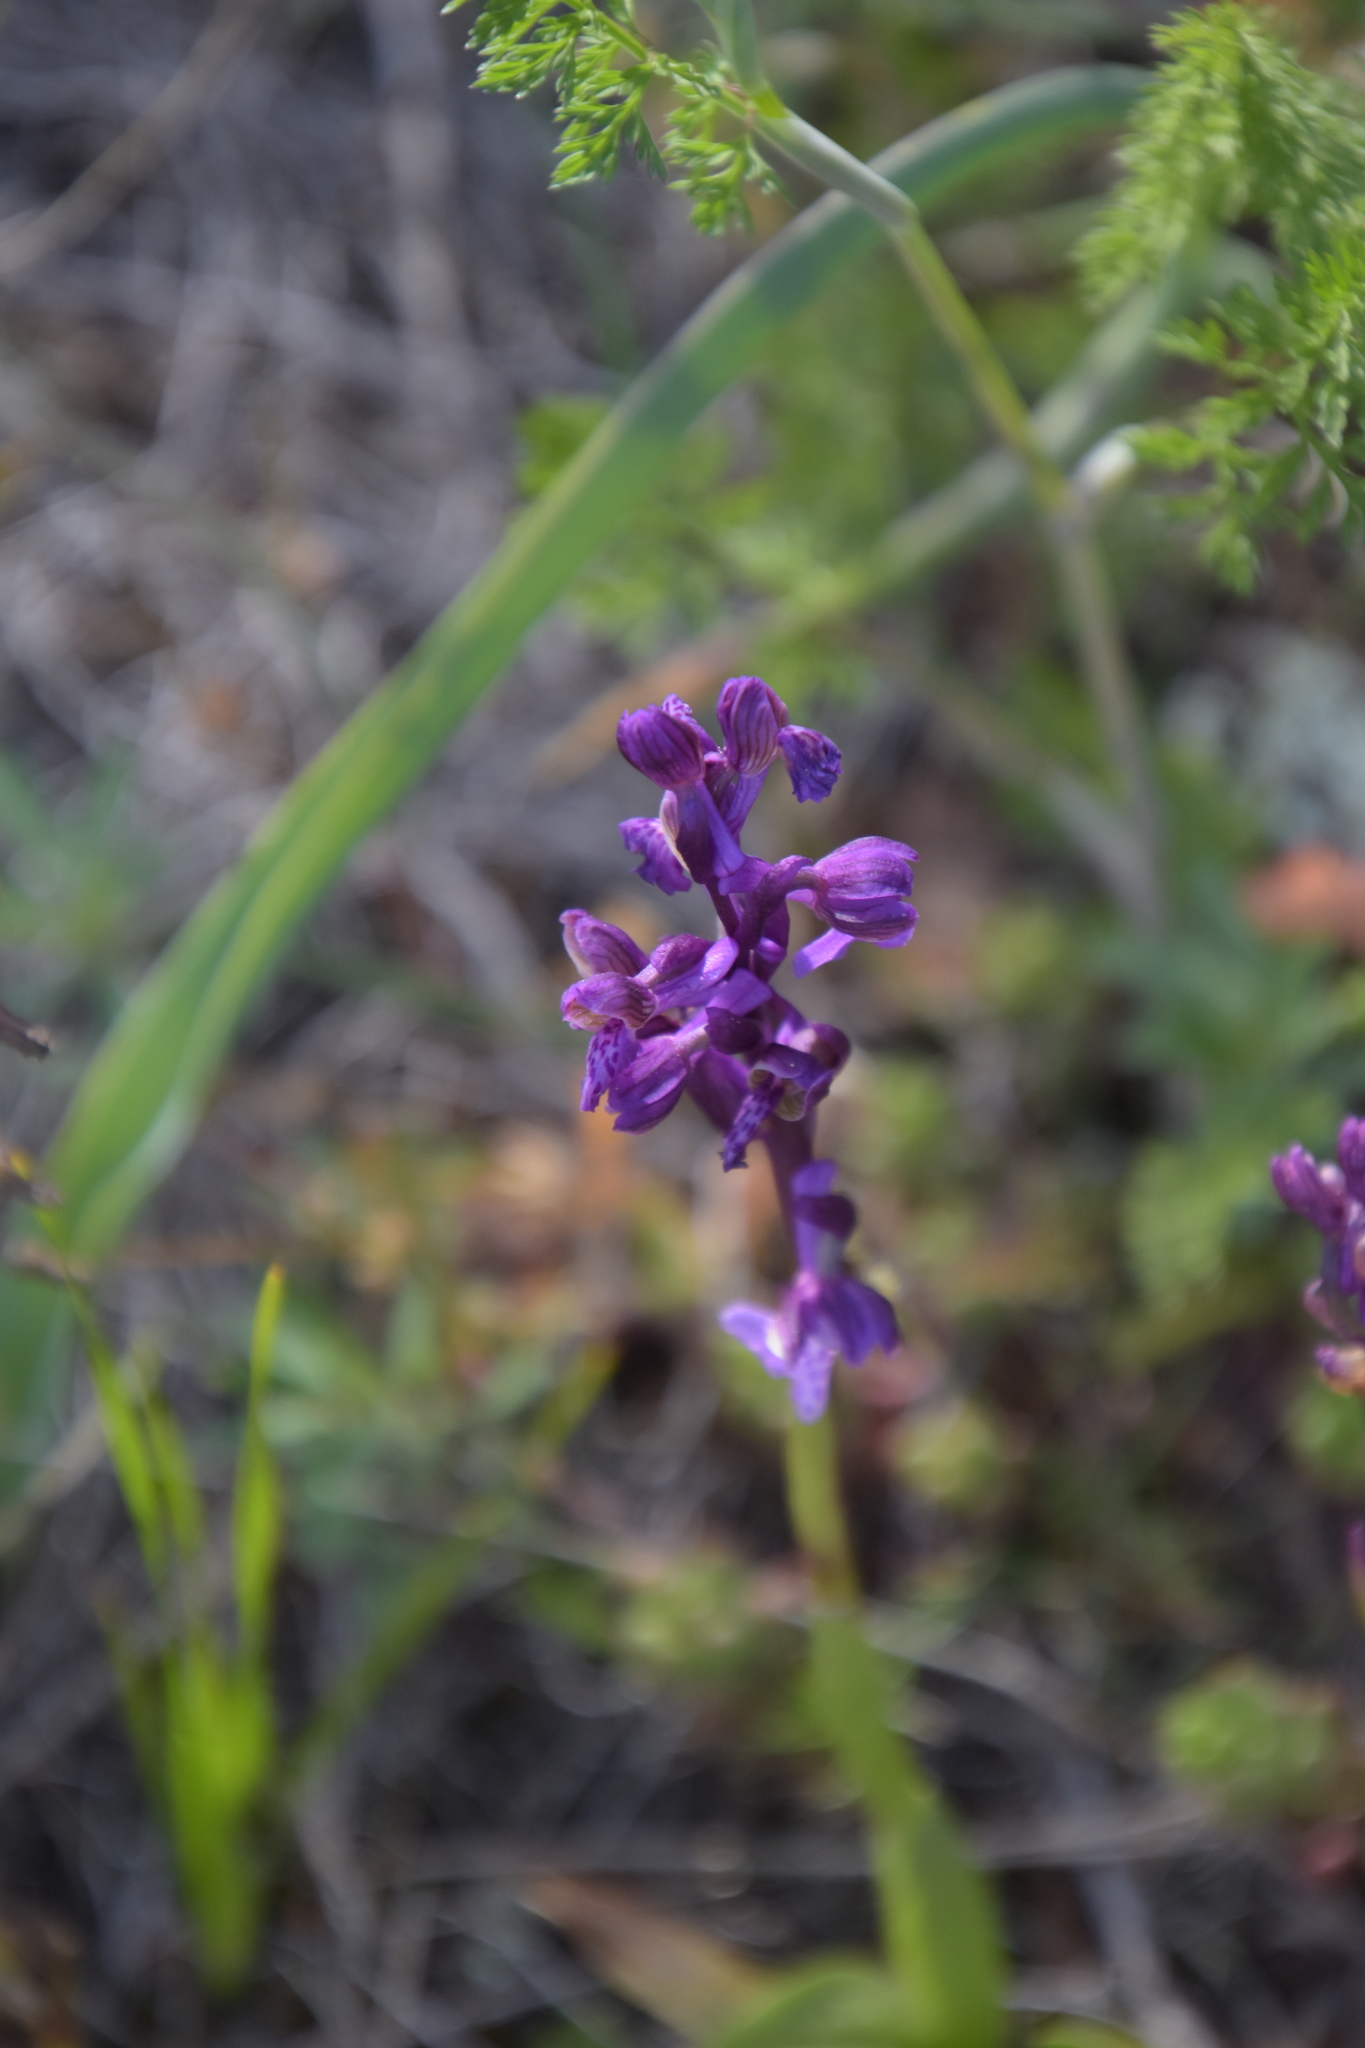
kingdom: Plantae
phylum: Tracheophyta
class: Liliopsida
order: Asparagales
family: Orchidaceae
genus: Anacamptis
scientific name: Anacamptis morio
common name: Green-winged orchid
